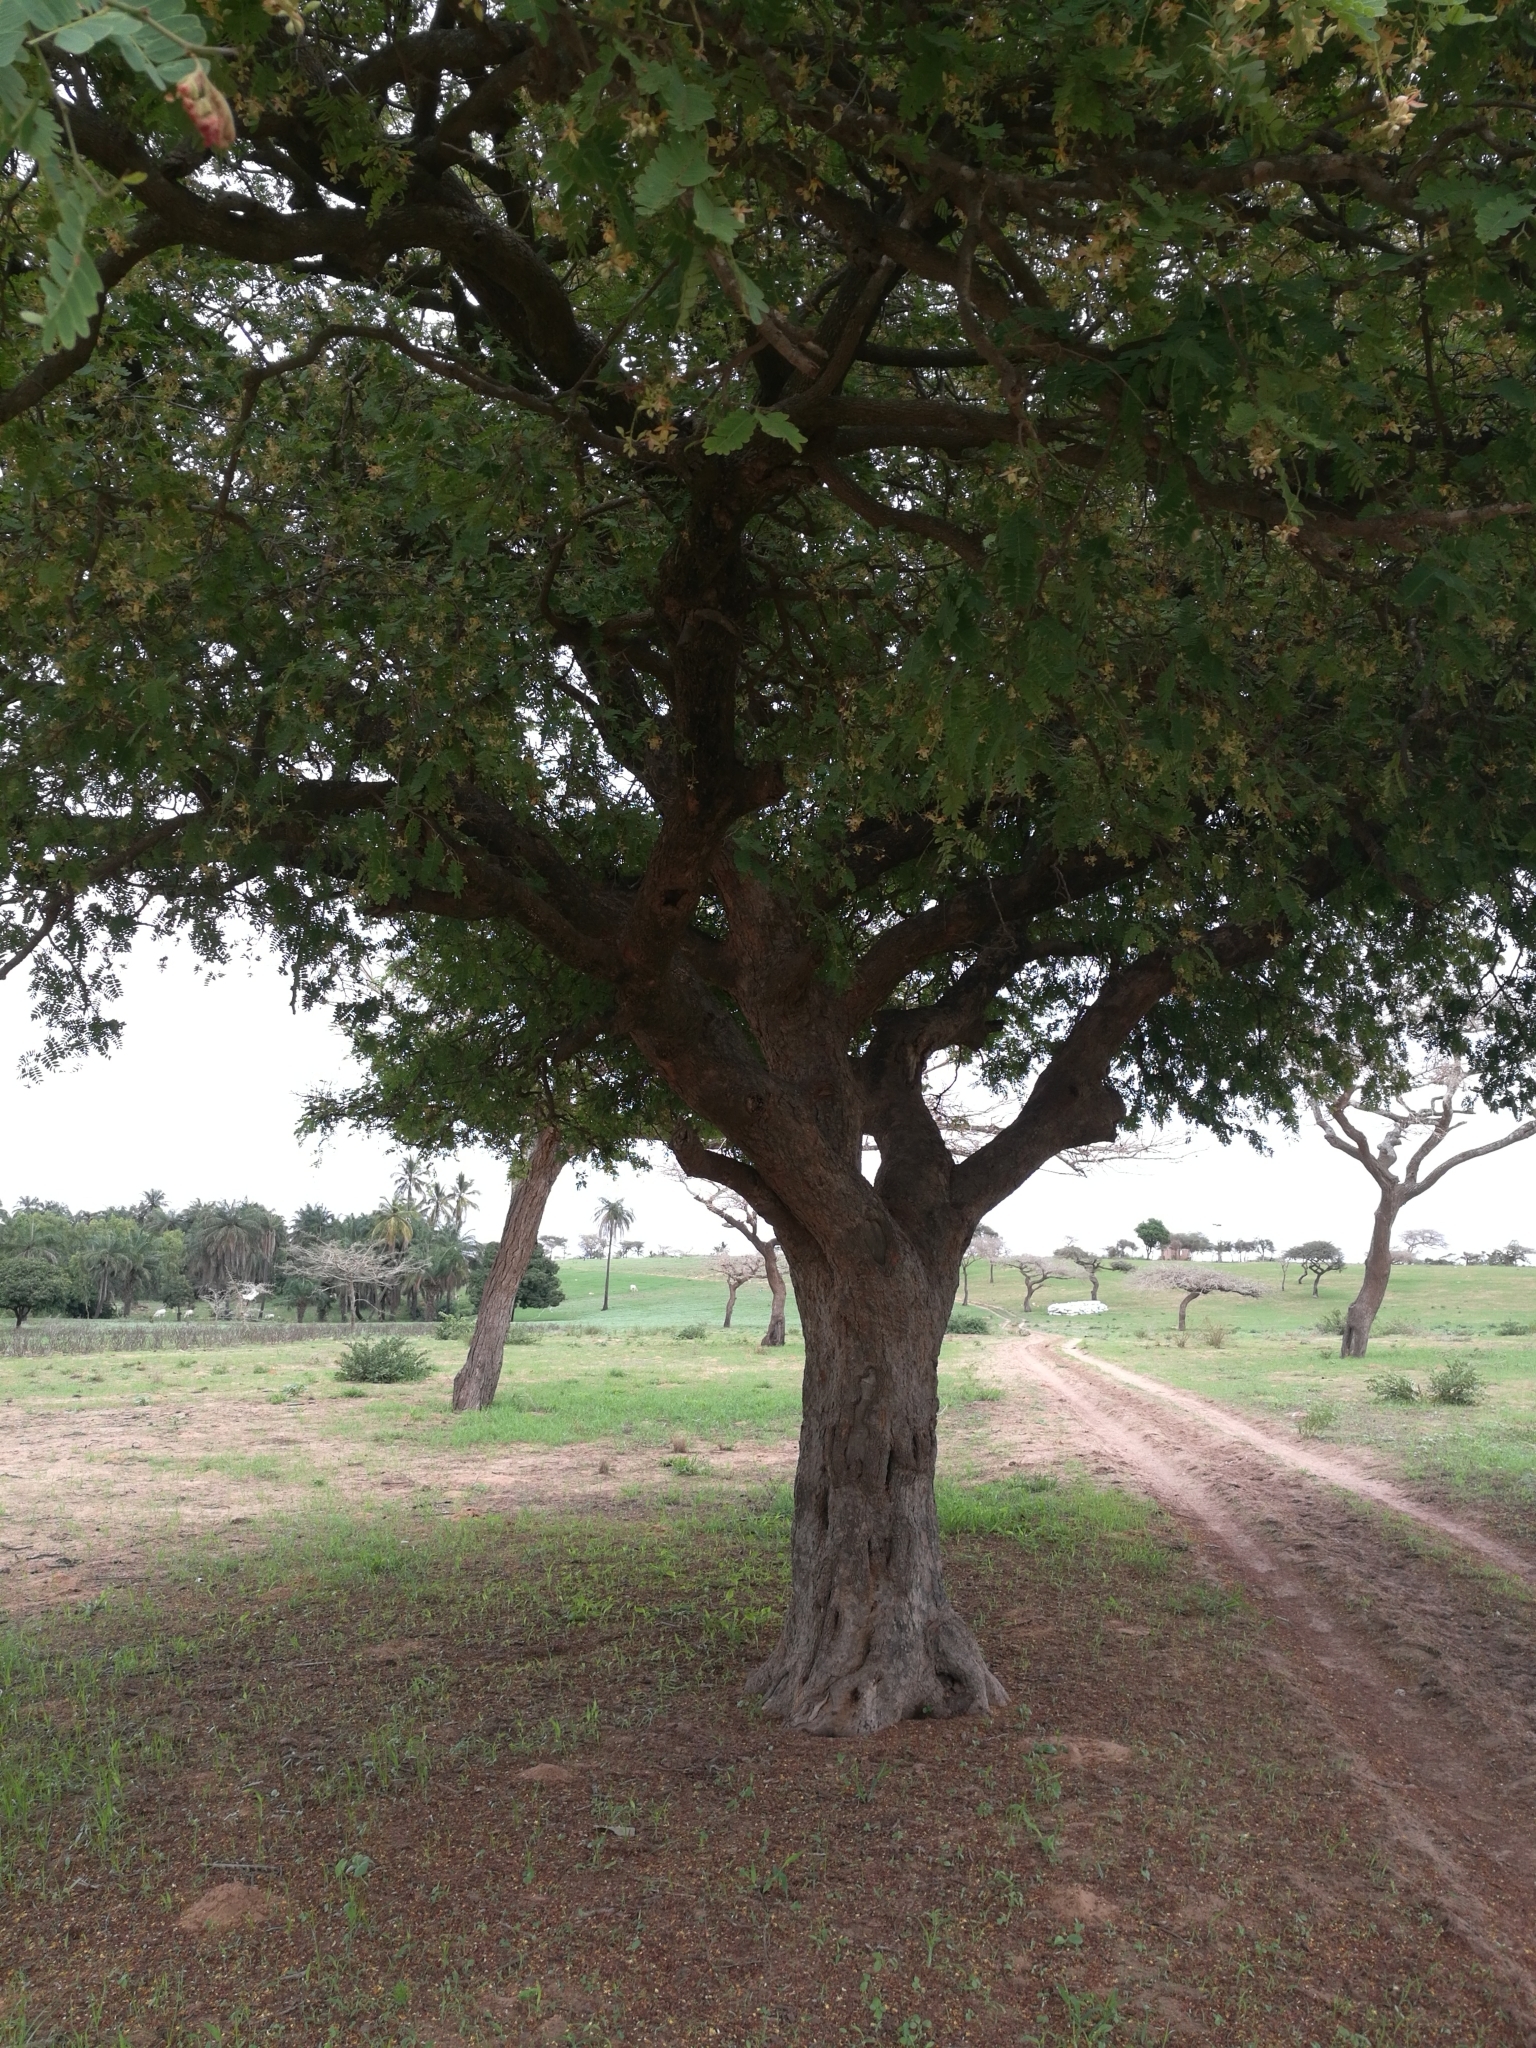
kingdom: Plantae
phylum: Tracheophyta
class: Magnoliopsida
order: Fabales
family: Fabaceae
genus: Tamarindus
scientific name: Tamarindus indica
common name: Tamarind
